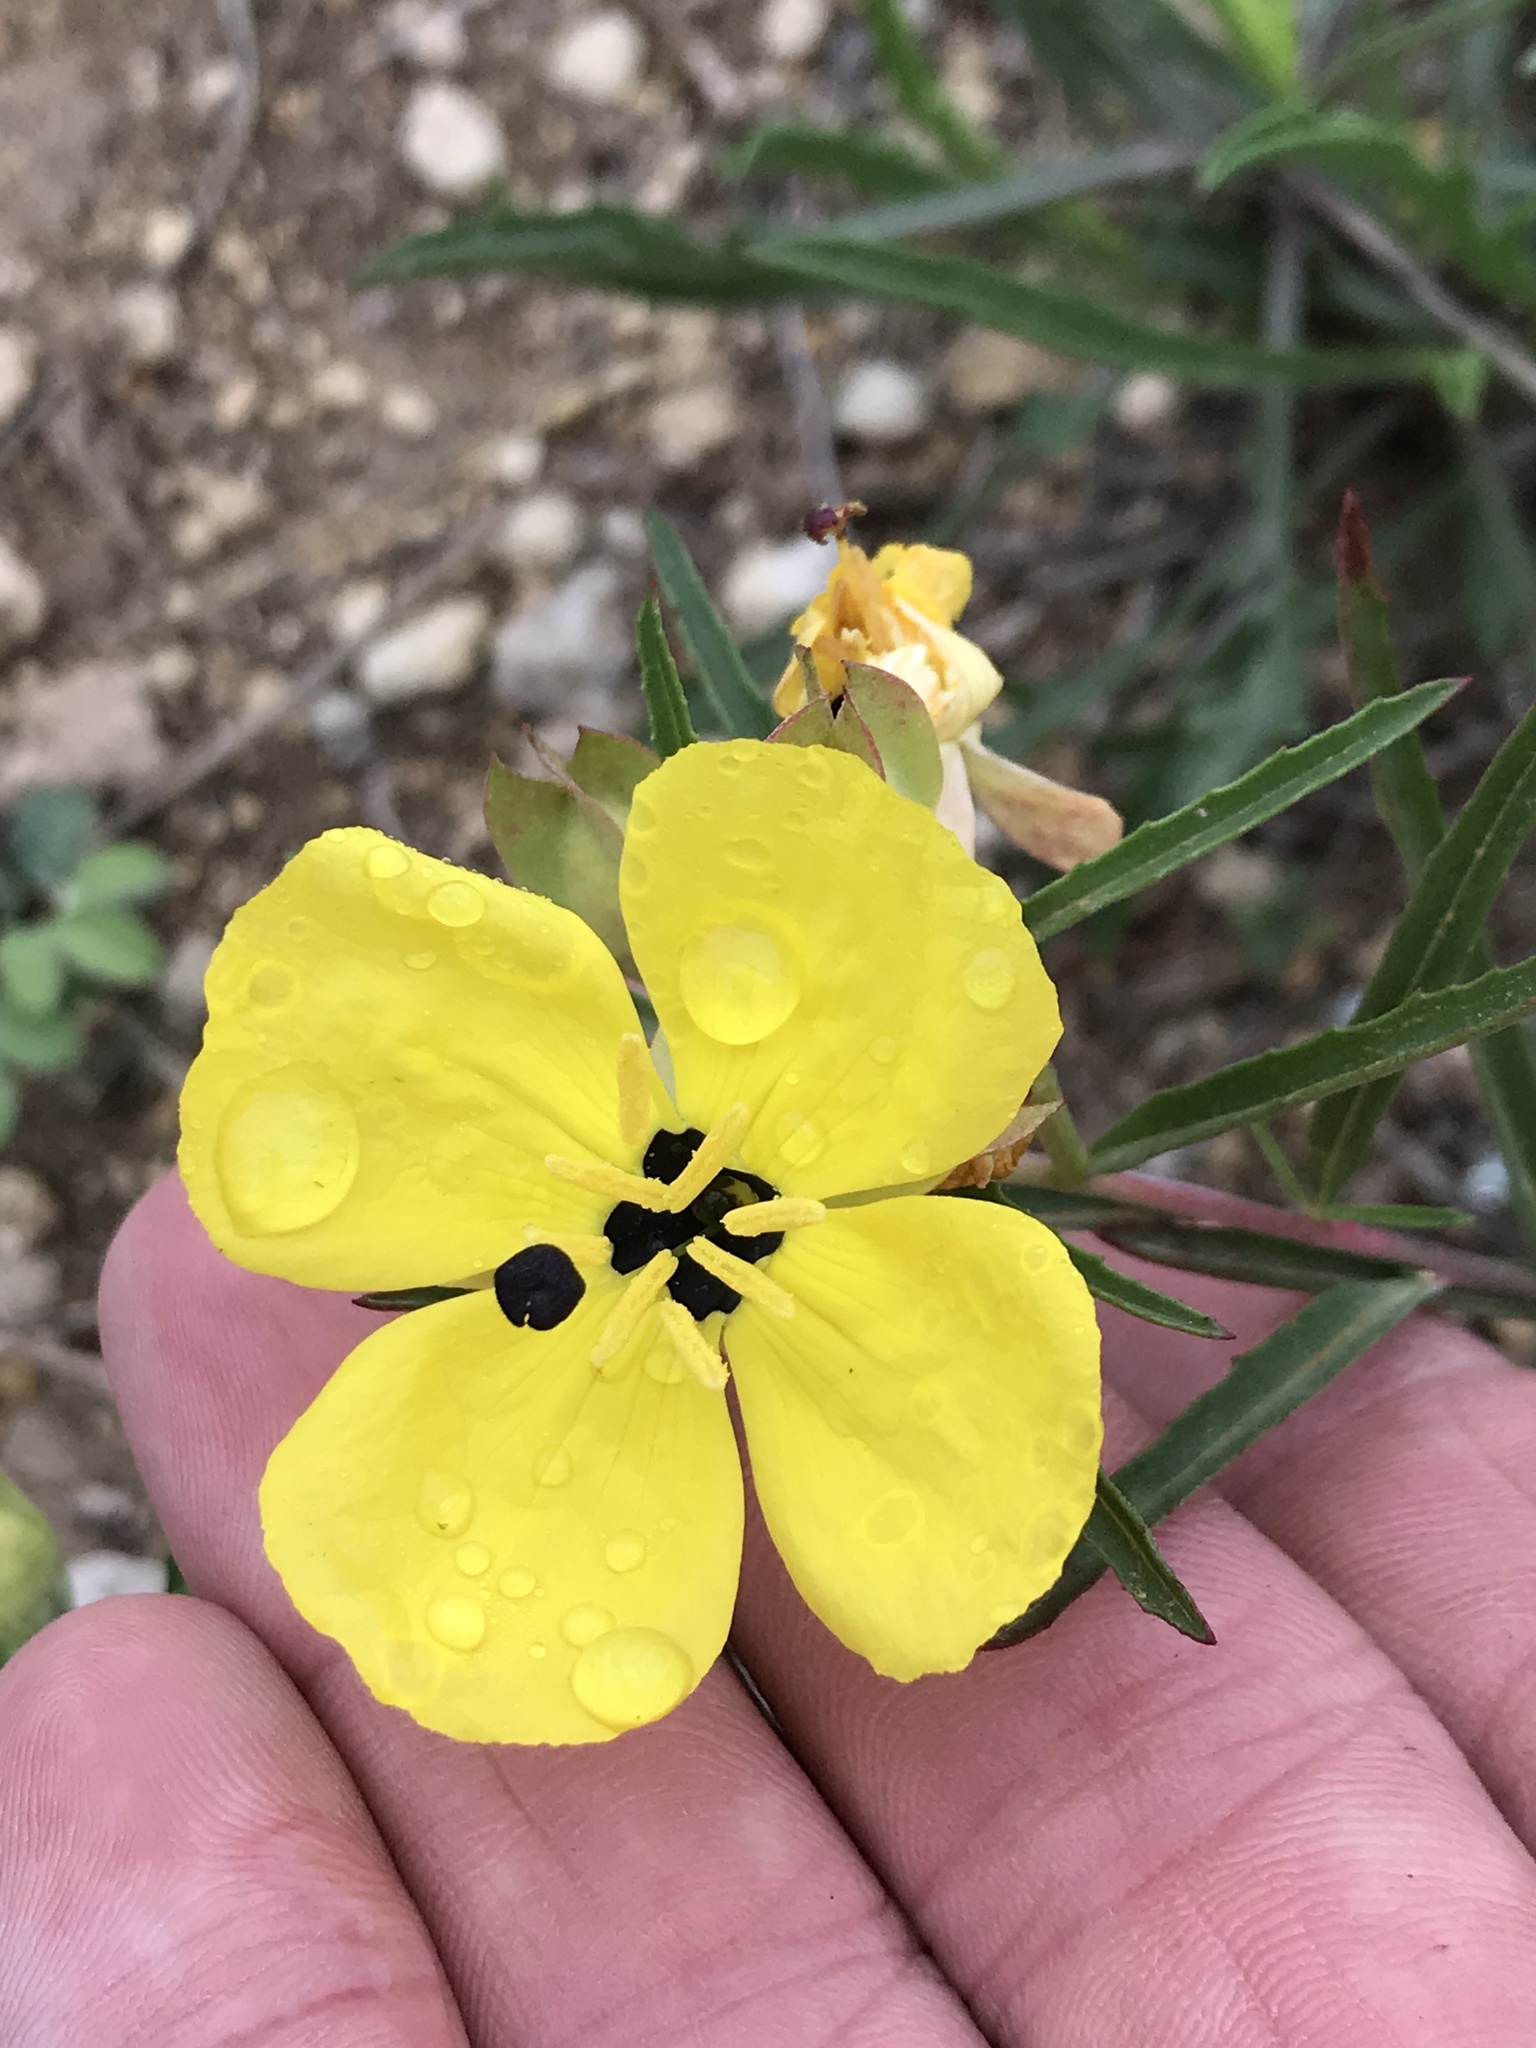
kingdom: Plantae
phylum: Tracheophyta
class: Magnoliopsida
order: Myrtales
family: Onagraceae
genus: Oenothera
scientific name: Oenothera
